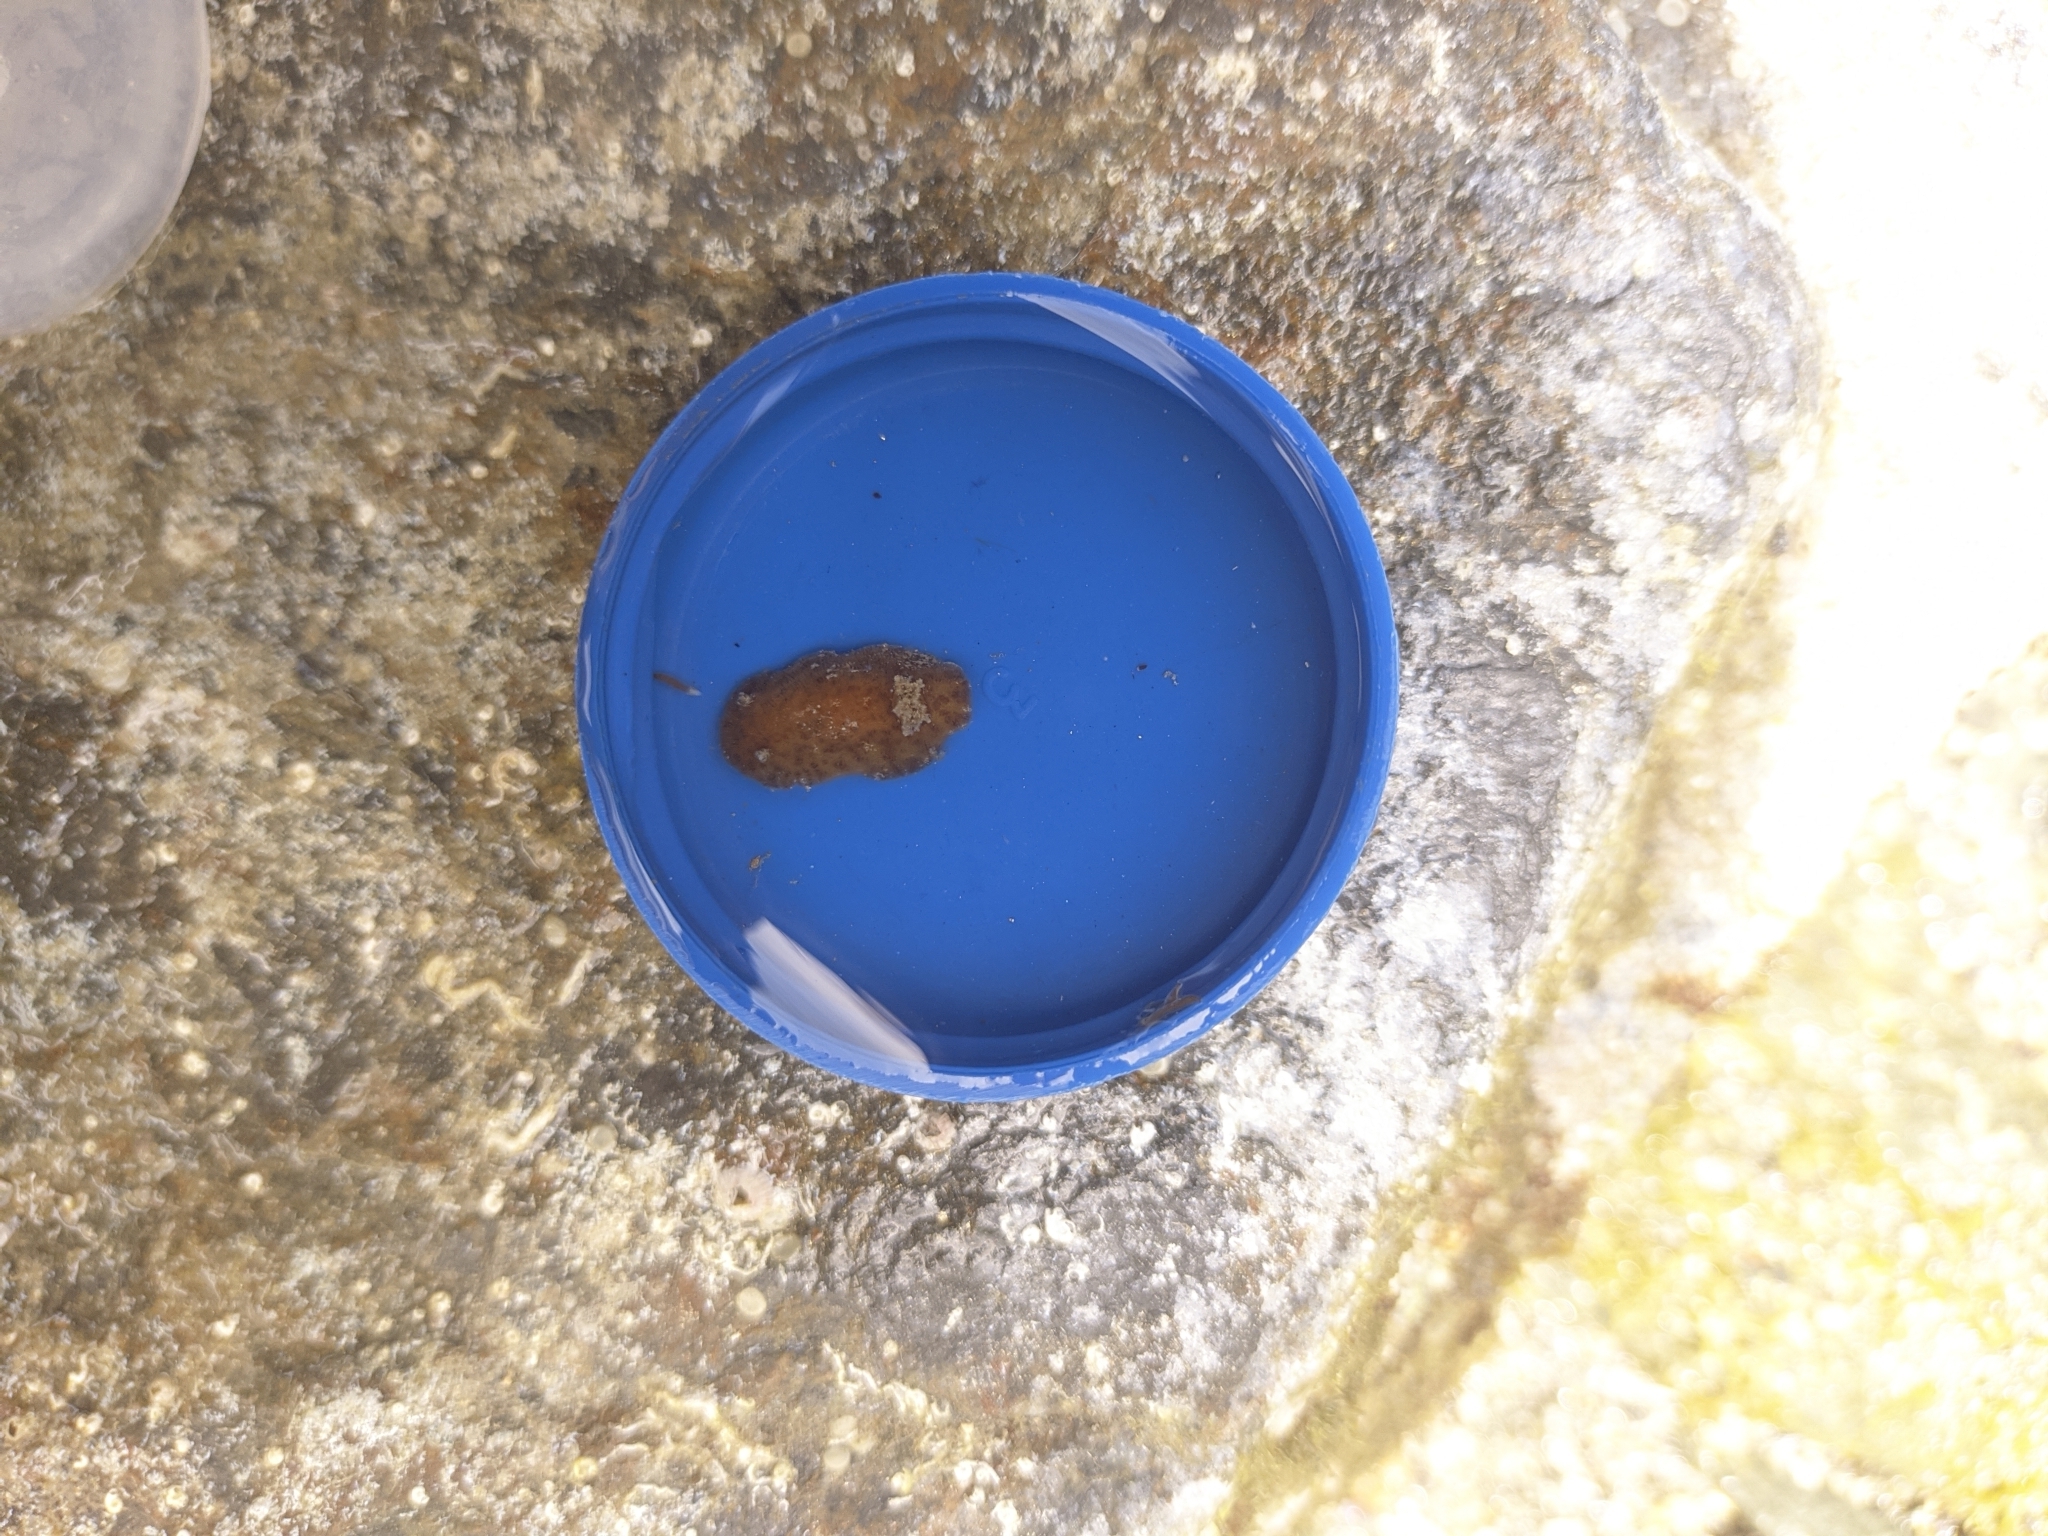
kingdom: Animalia
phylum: Mollusca
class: Gastropoda
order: Nudibranchia
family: Discodorididae
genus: Taringa
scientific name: Taringa telopia
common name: Orangeball taringa
